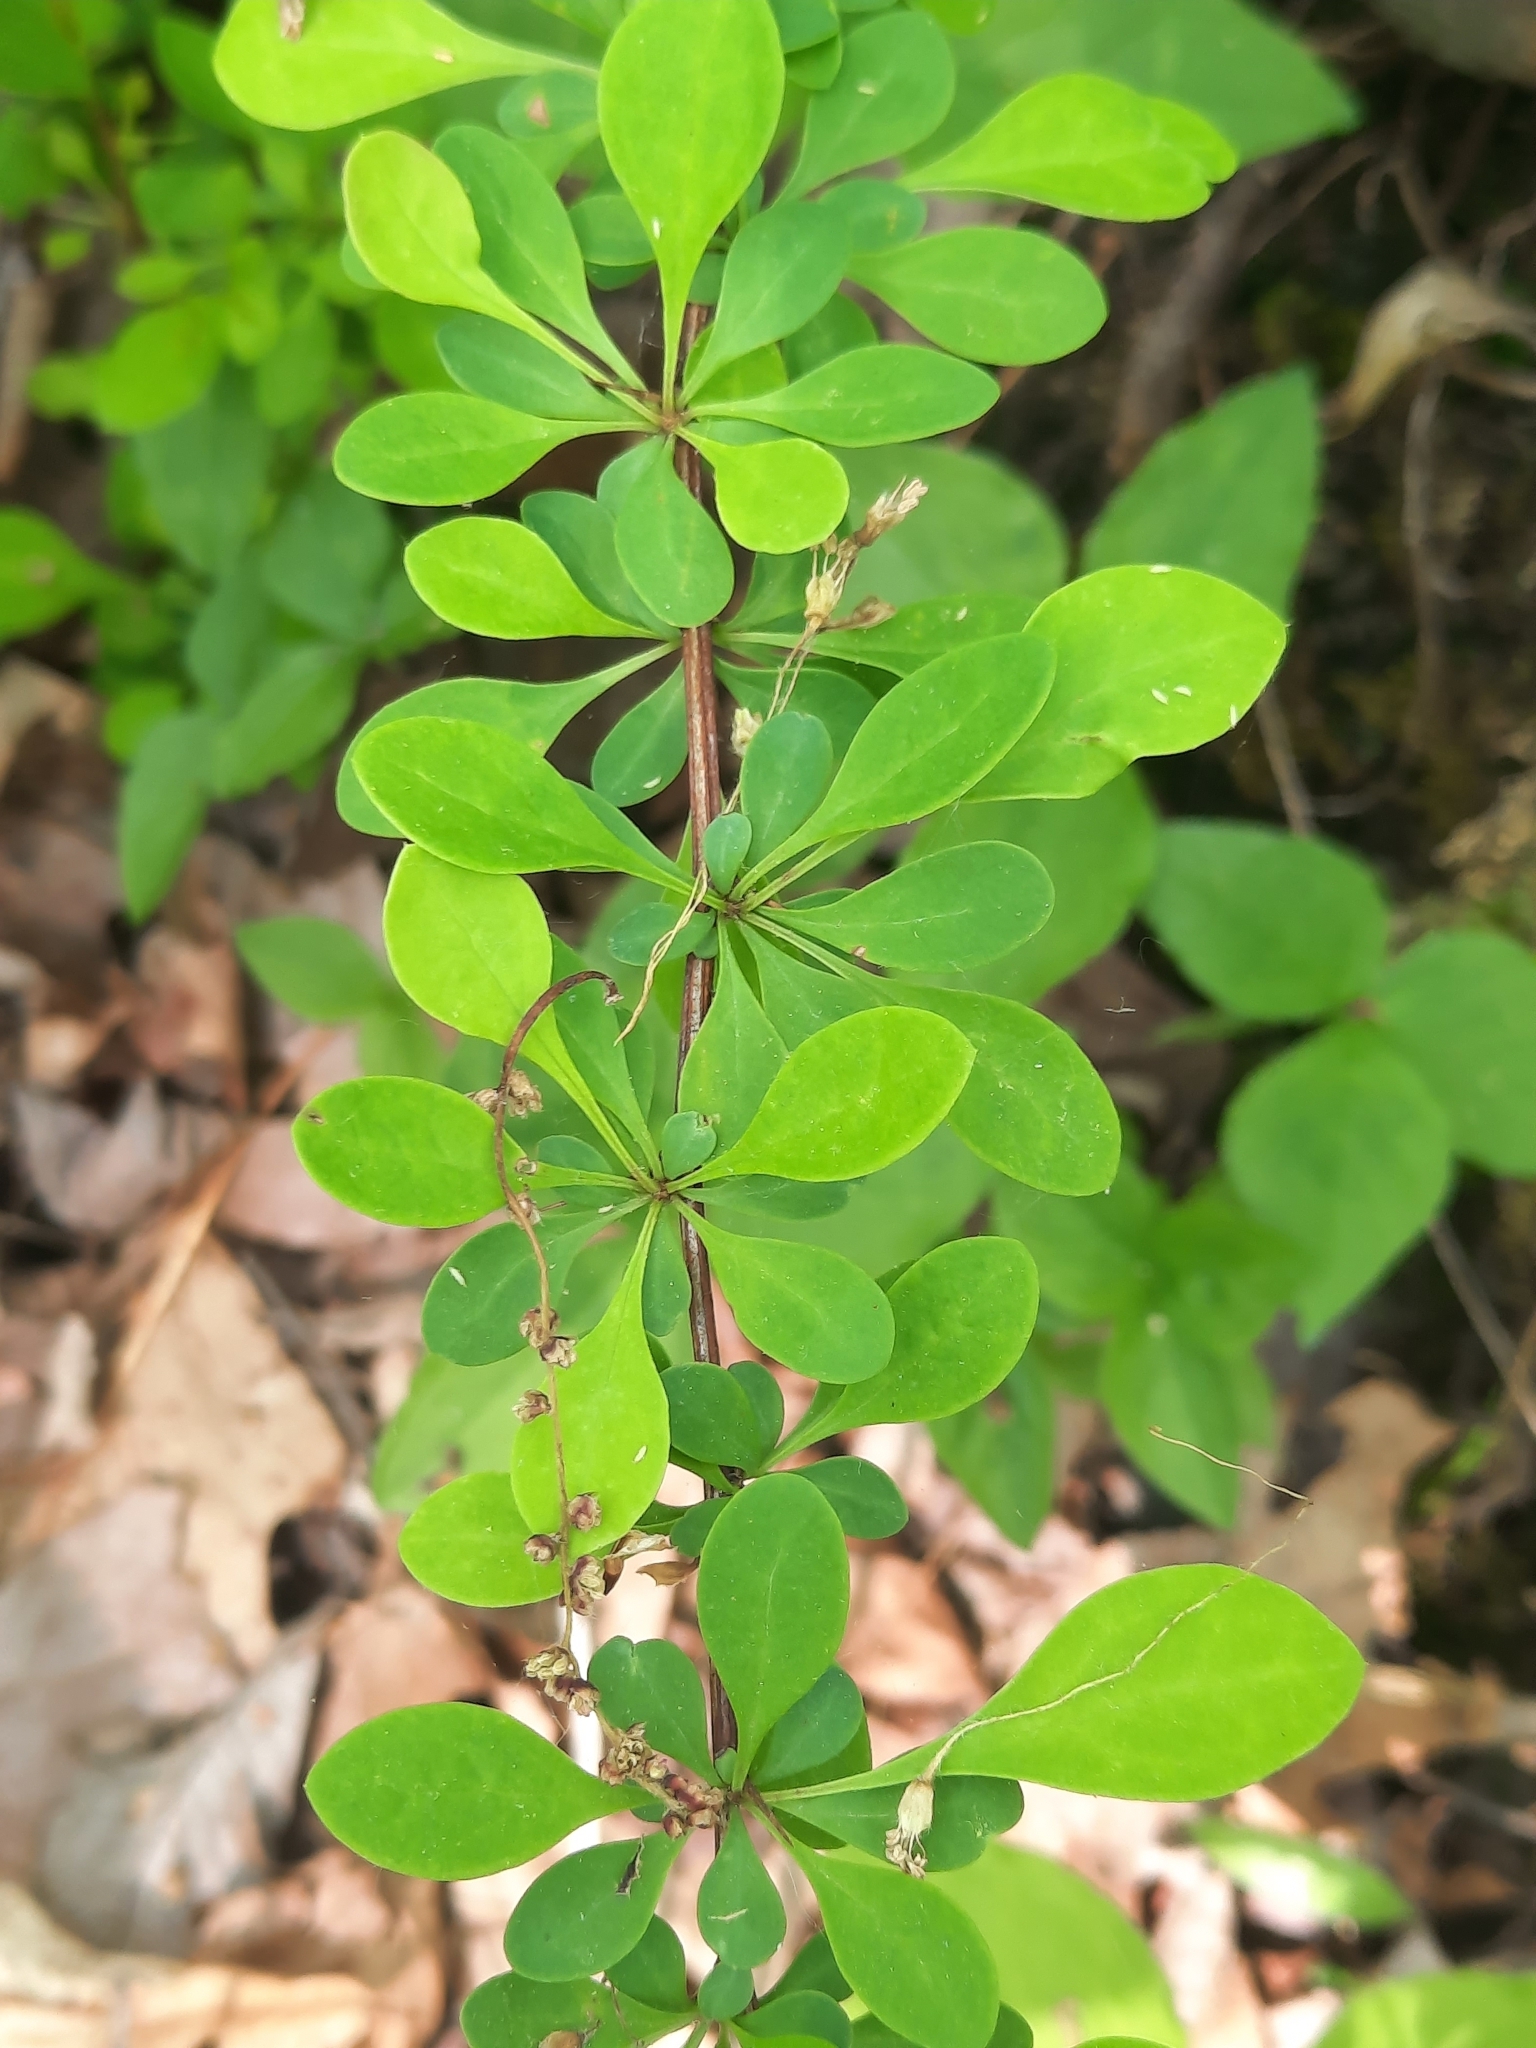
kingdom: Plantae
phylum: Tracheophyta
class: Magnoliopsida
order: Ranunculales
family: Berberidaceae
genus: Berberis
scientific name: Berberis thunbergii
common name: Japanese barberry
